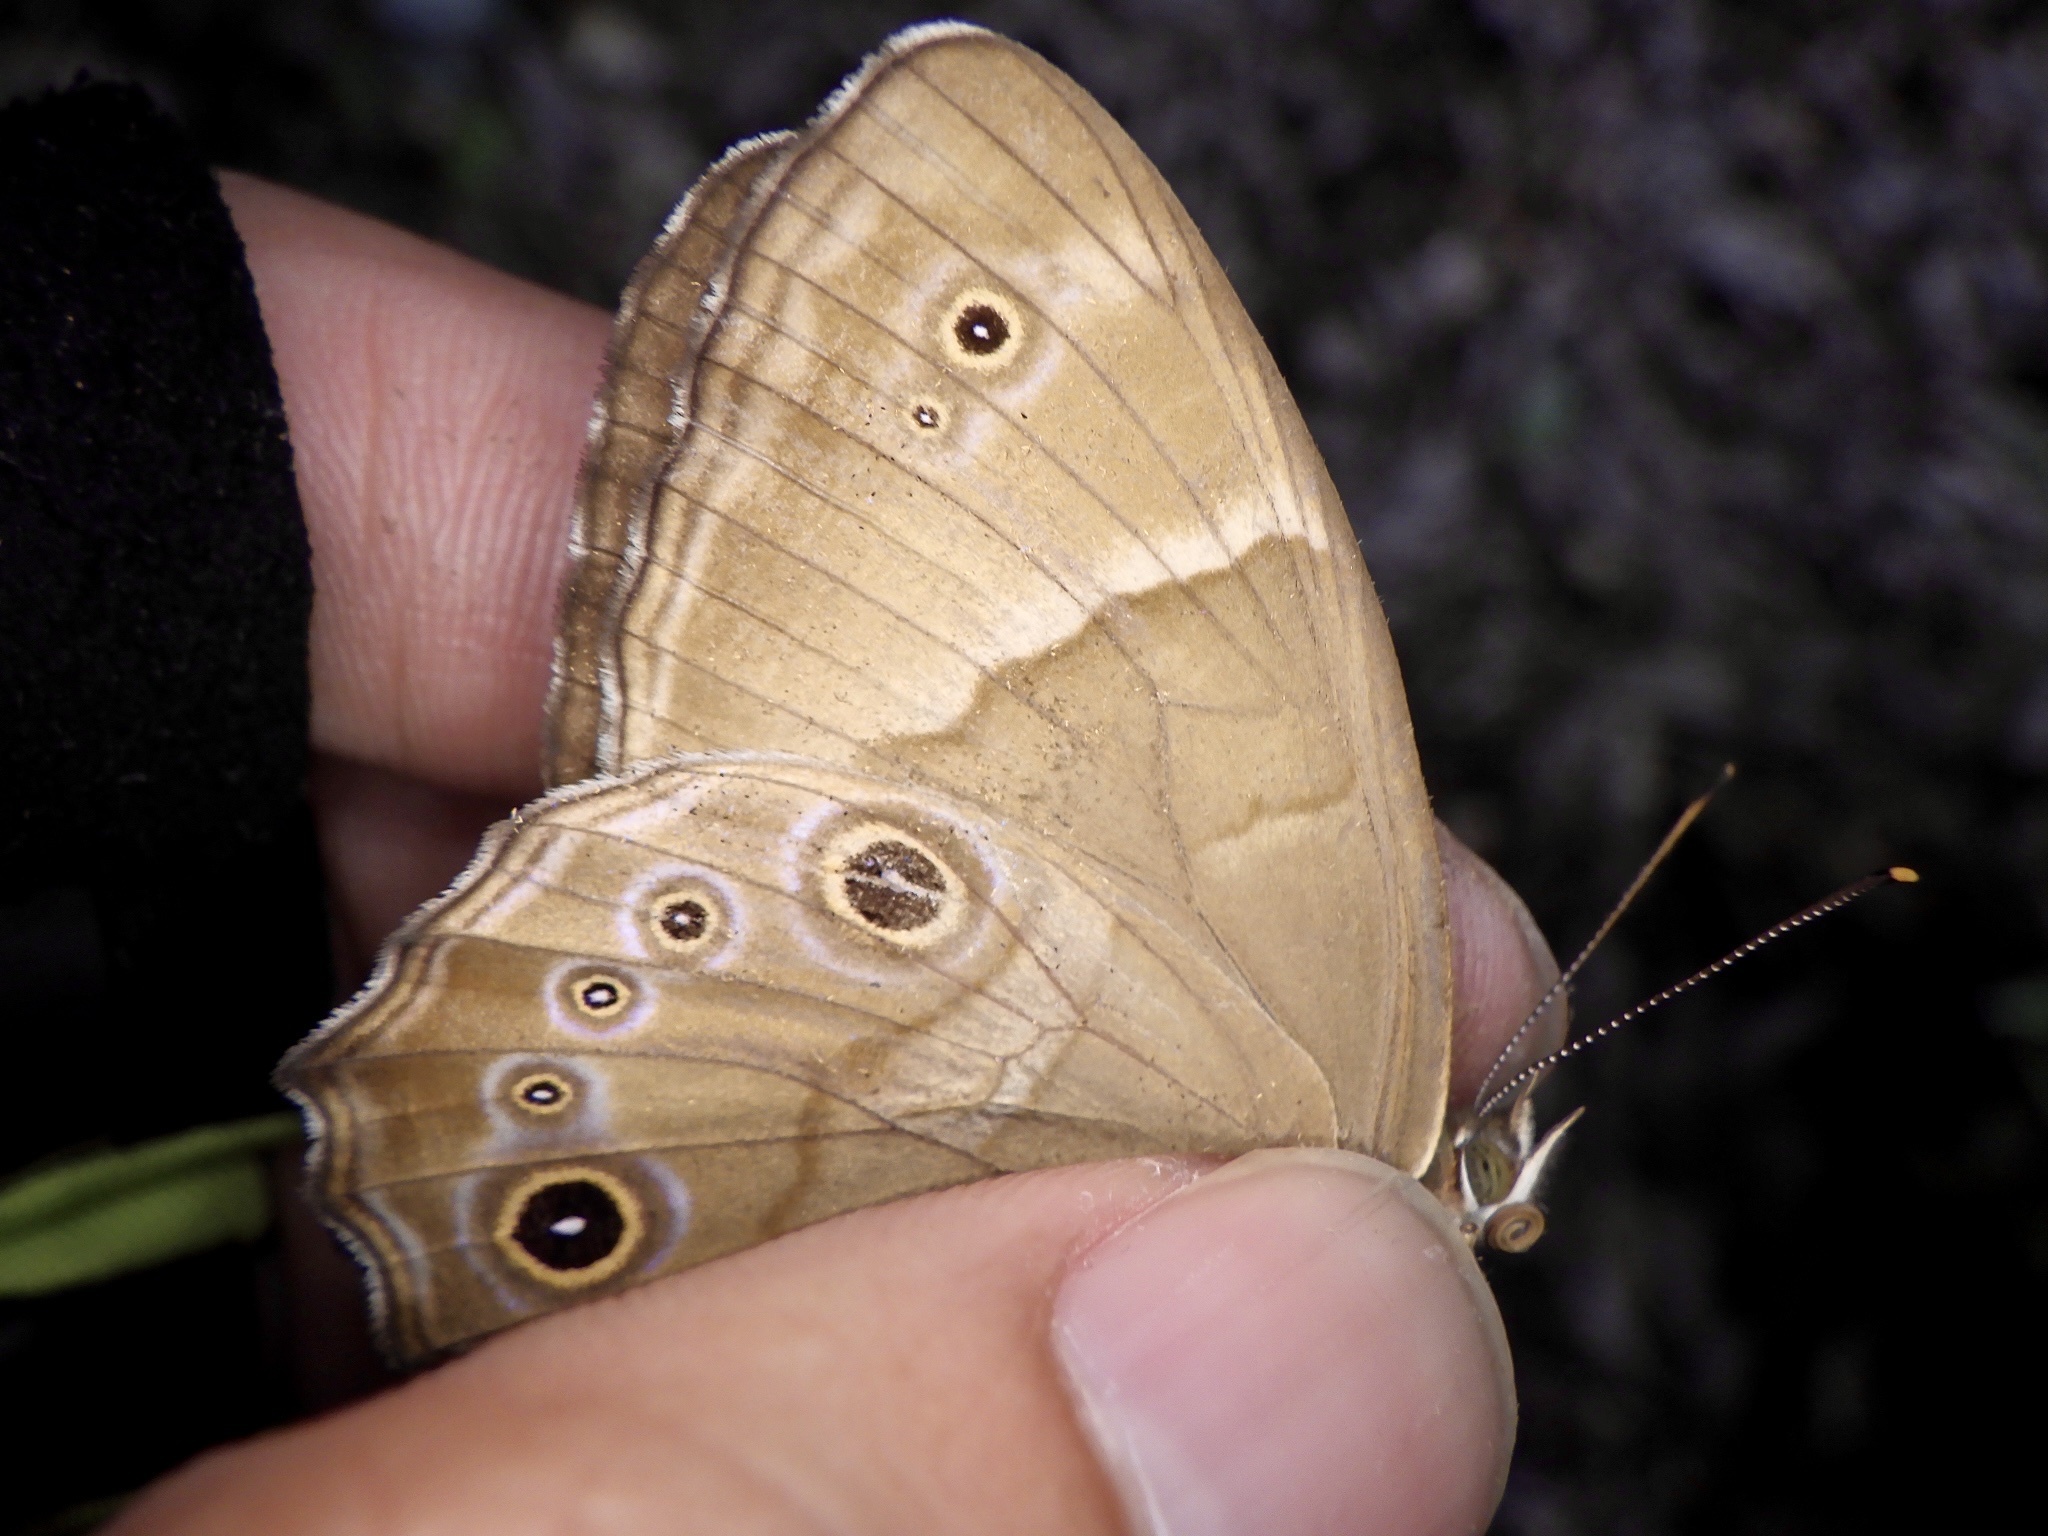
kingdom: Animalia
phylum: Arthropoda
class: Insecta
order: Lepidoptera
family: Nymphalidae
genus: Lethe
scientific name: Lethe sicelis
